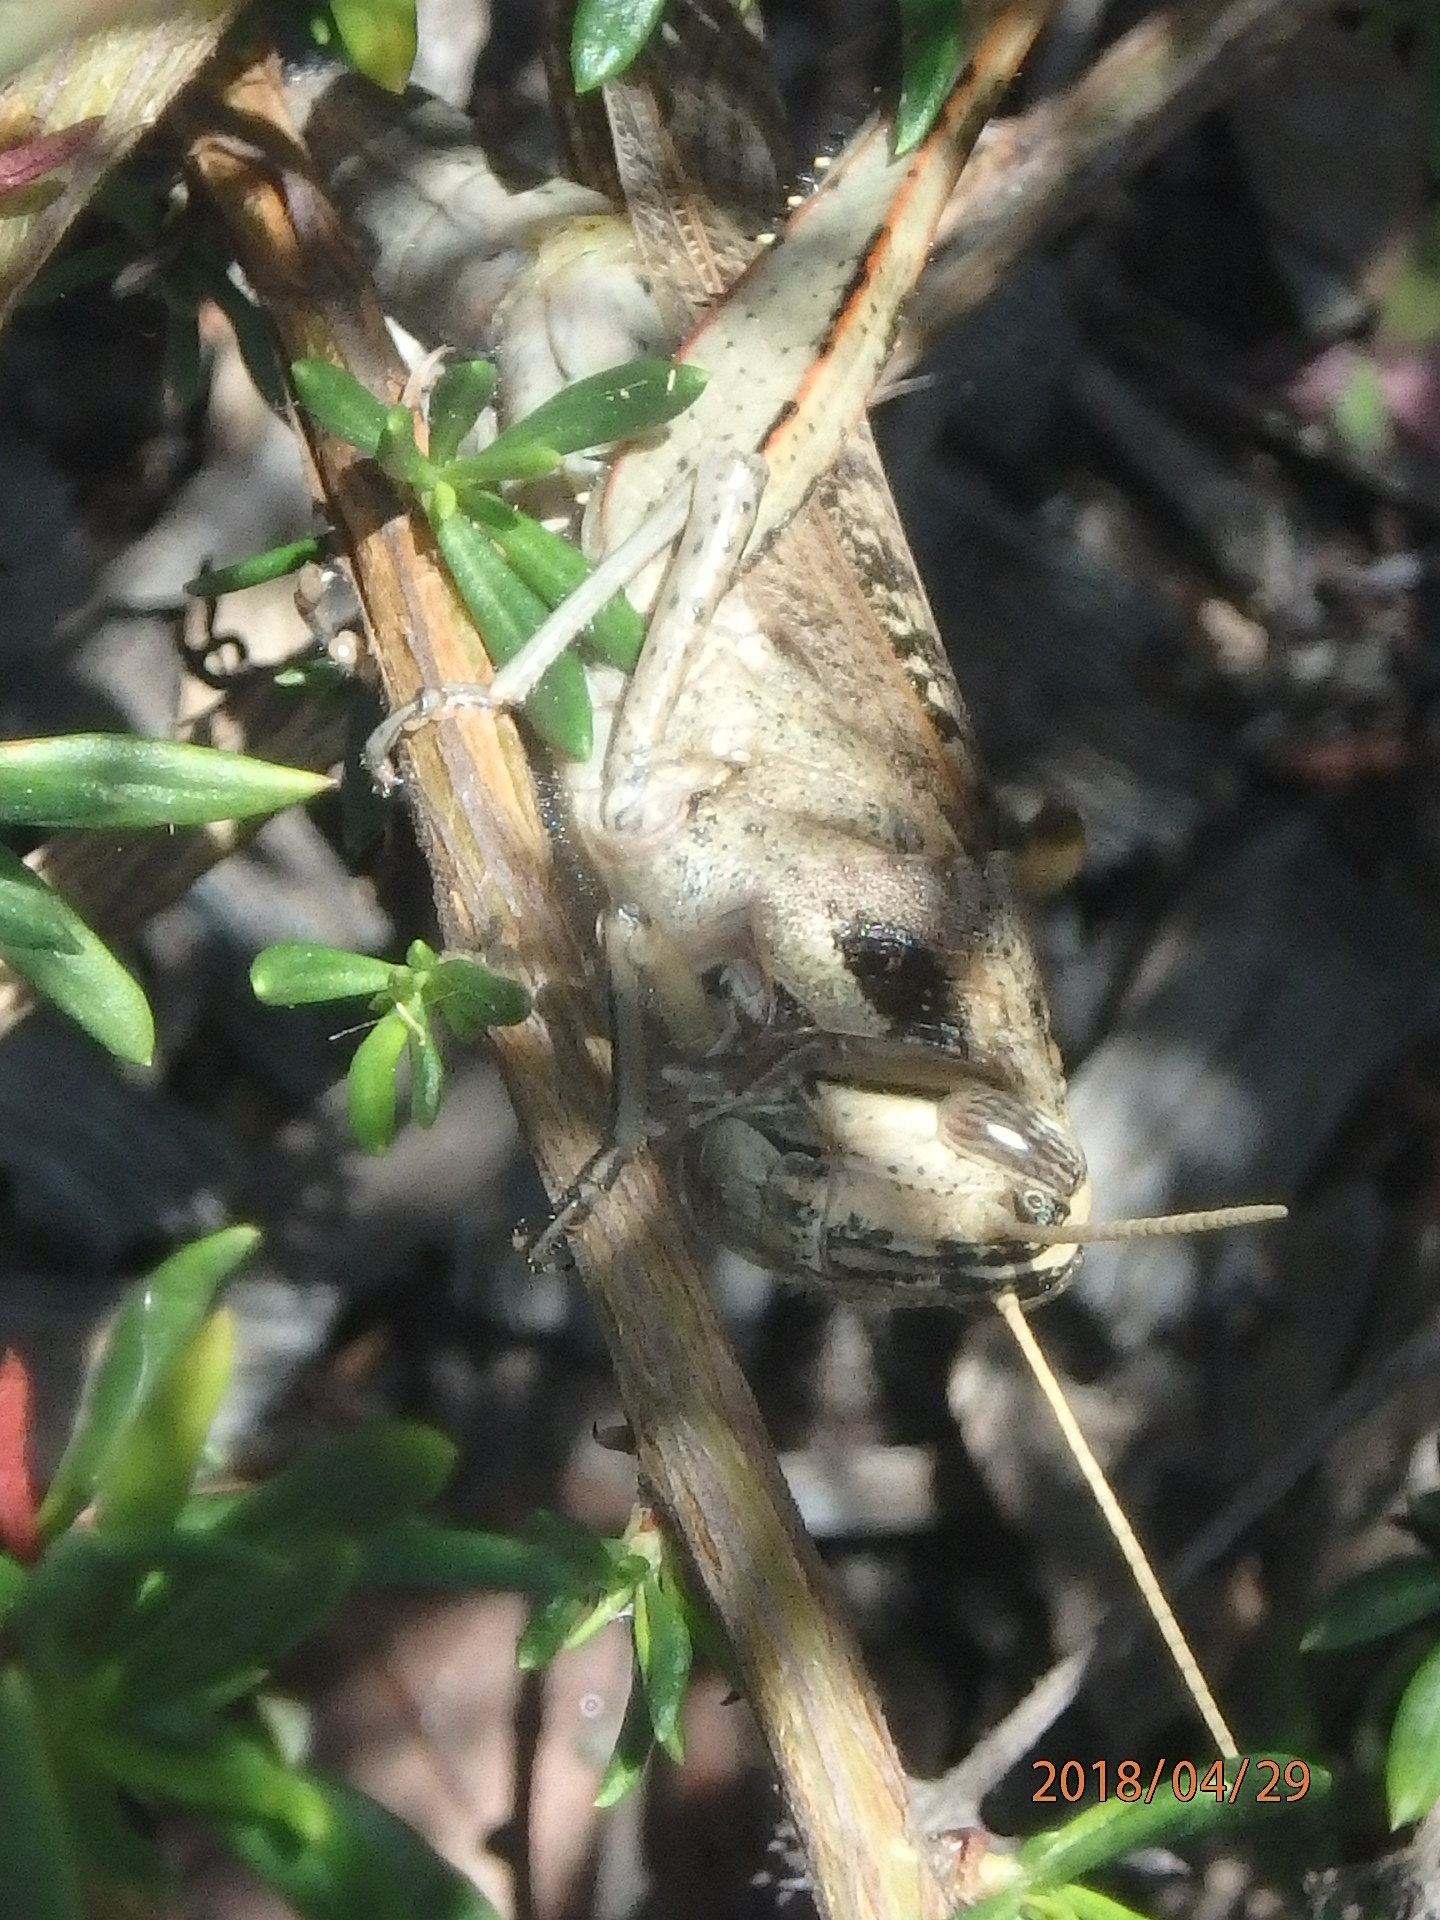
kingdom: Animalia
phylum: Arthropoda
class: Insecta
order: Orthoptera
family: Acrididae
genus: Schistocerca
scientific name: Schistocerca nitens
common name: Vagrant grasshopper
